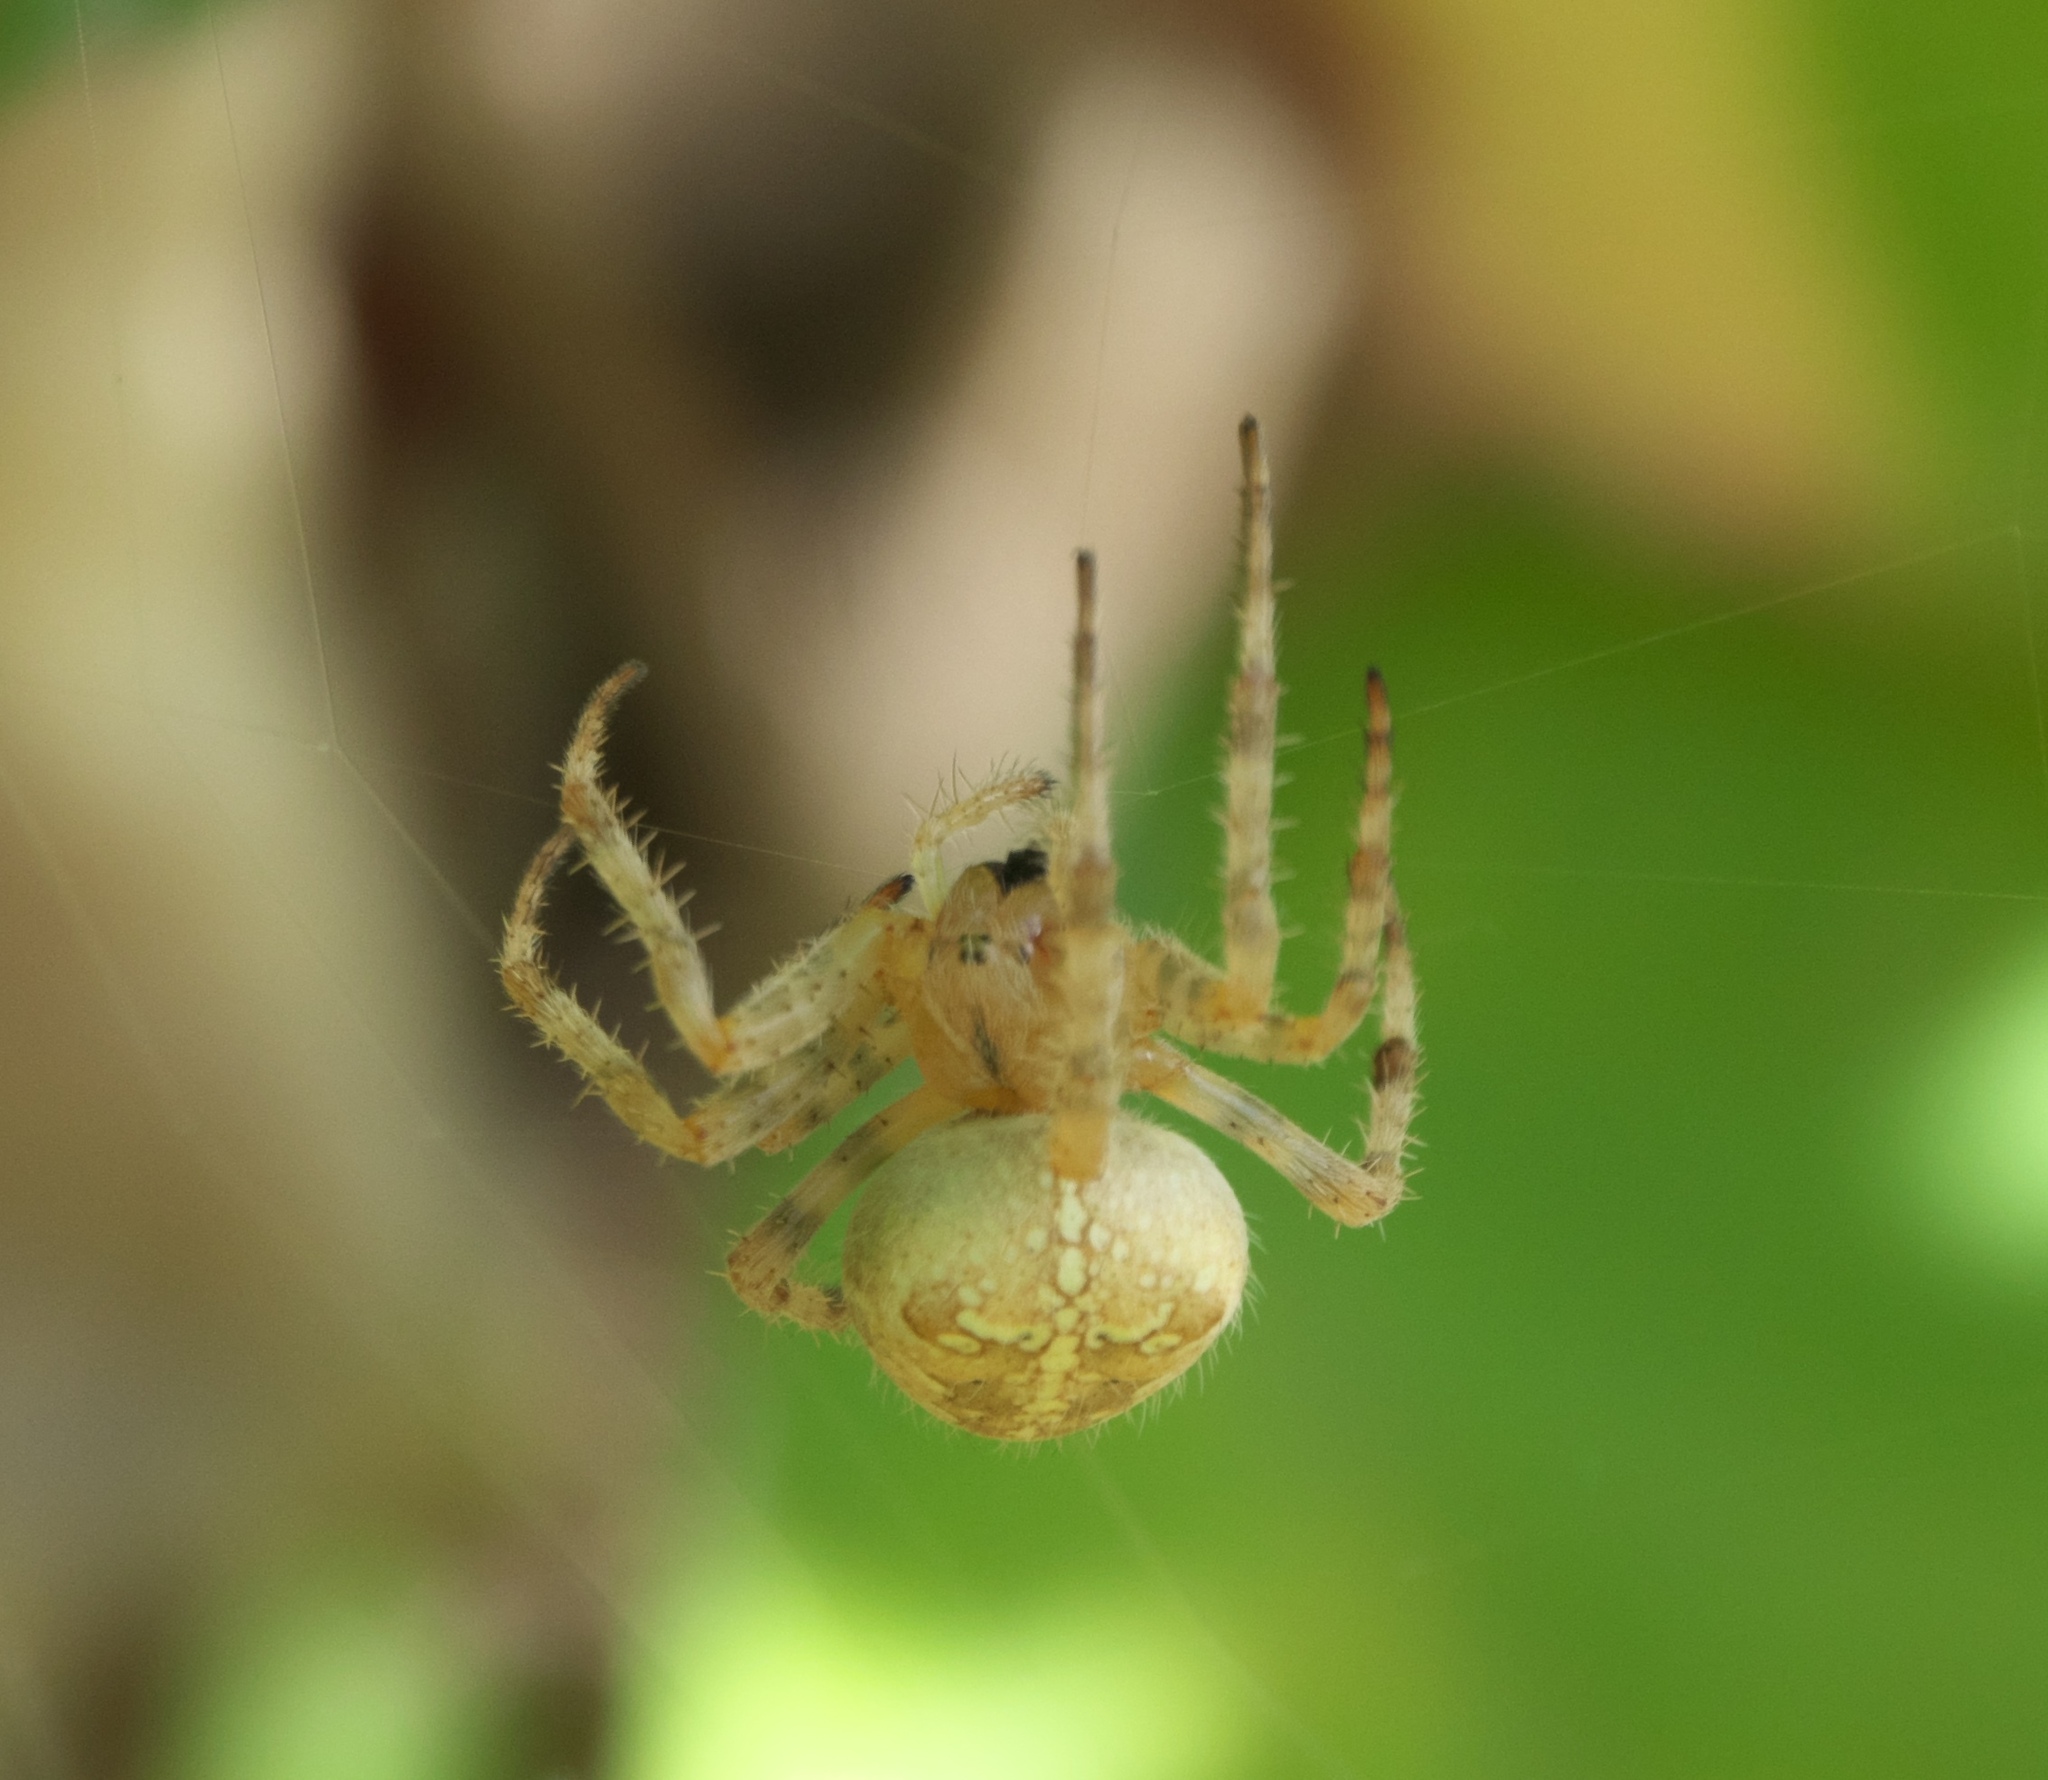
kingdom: Animalia
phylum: Arthropoda
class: Arachnida
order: Araneae
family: Araneidae
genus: Araneus
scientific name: Araneus diadematus
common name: Cross orbweaver
